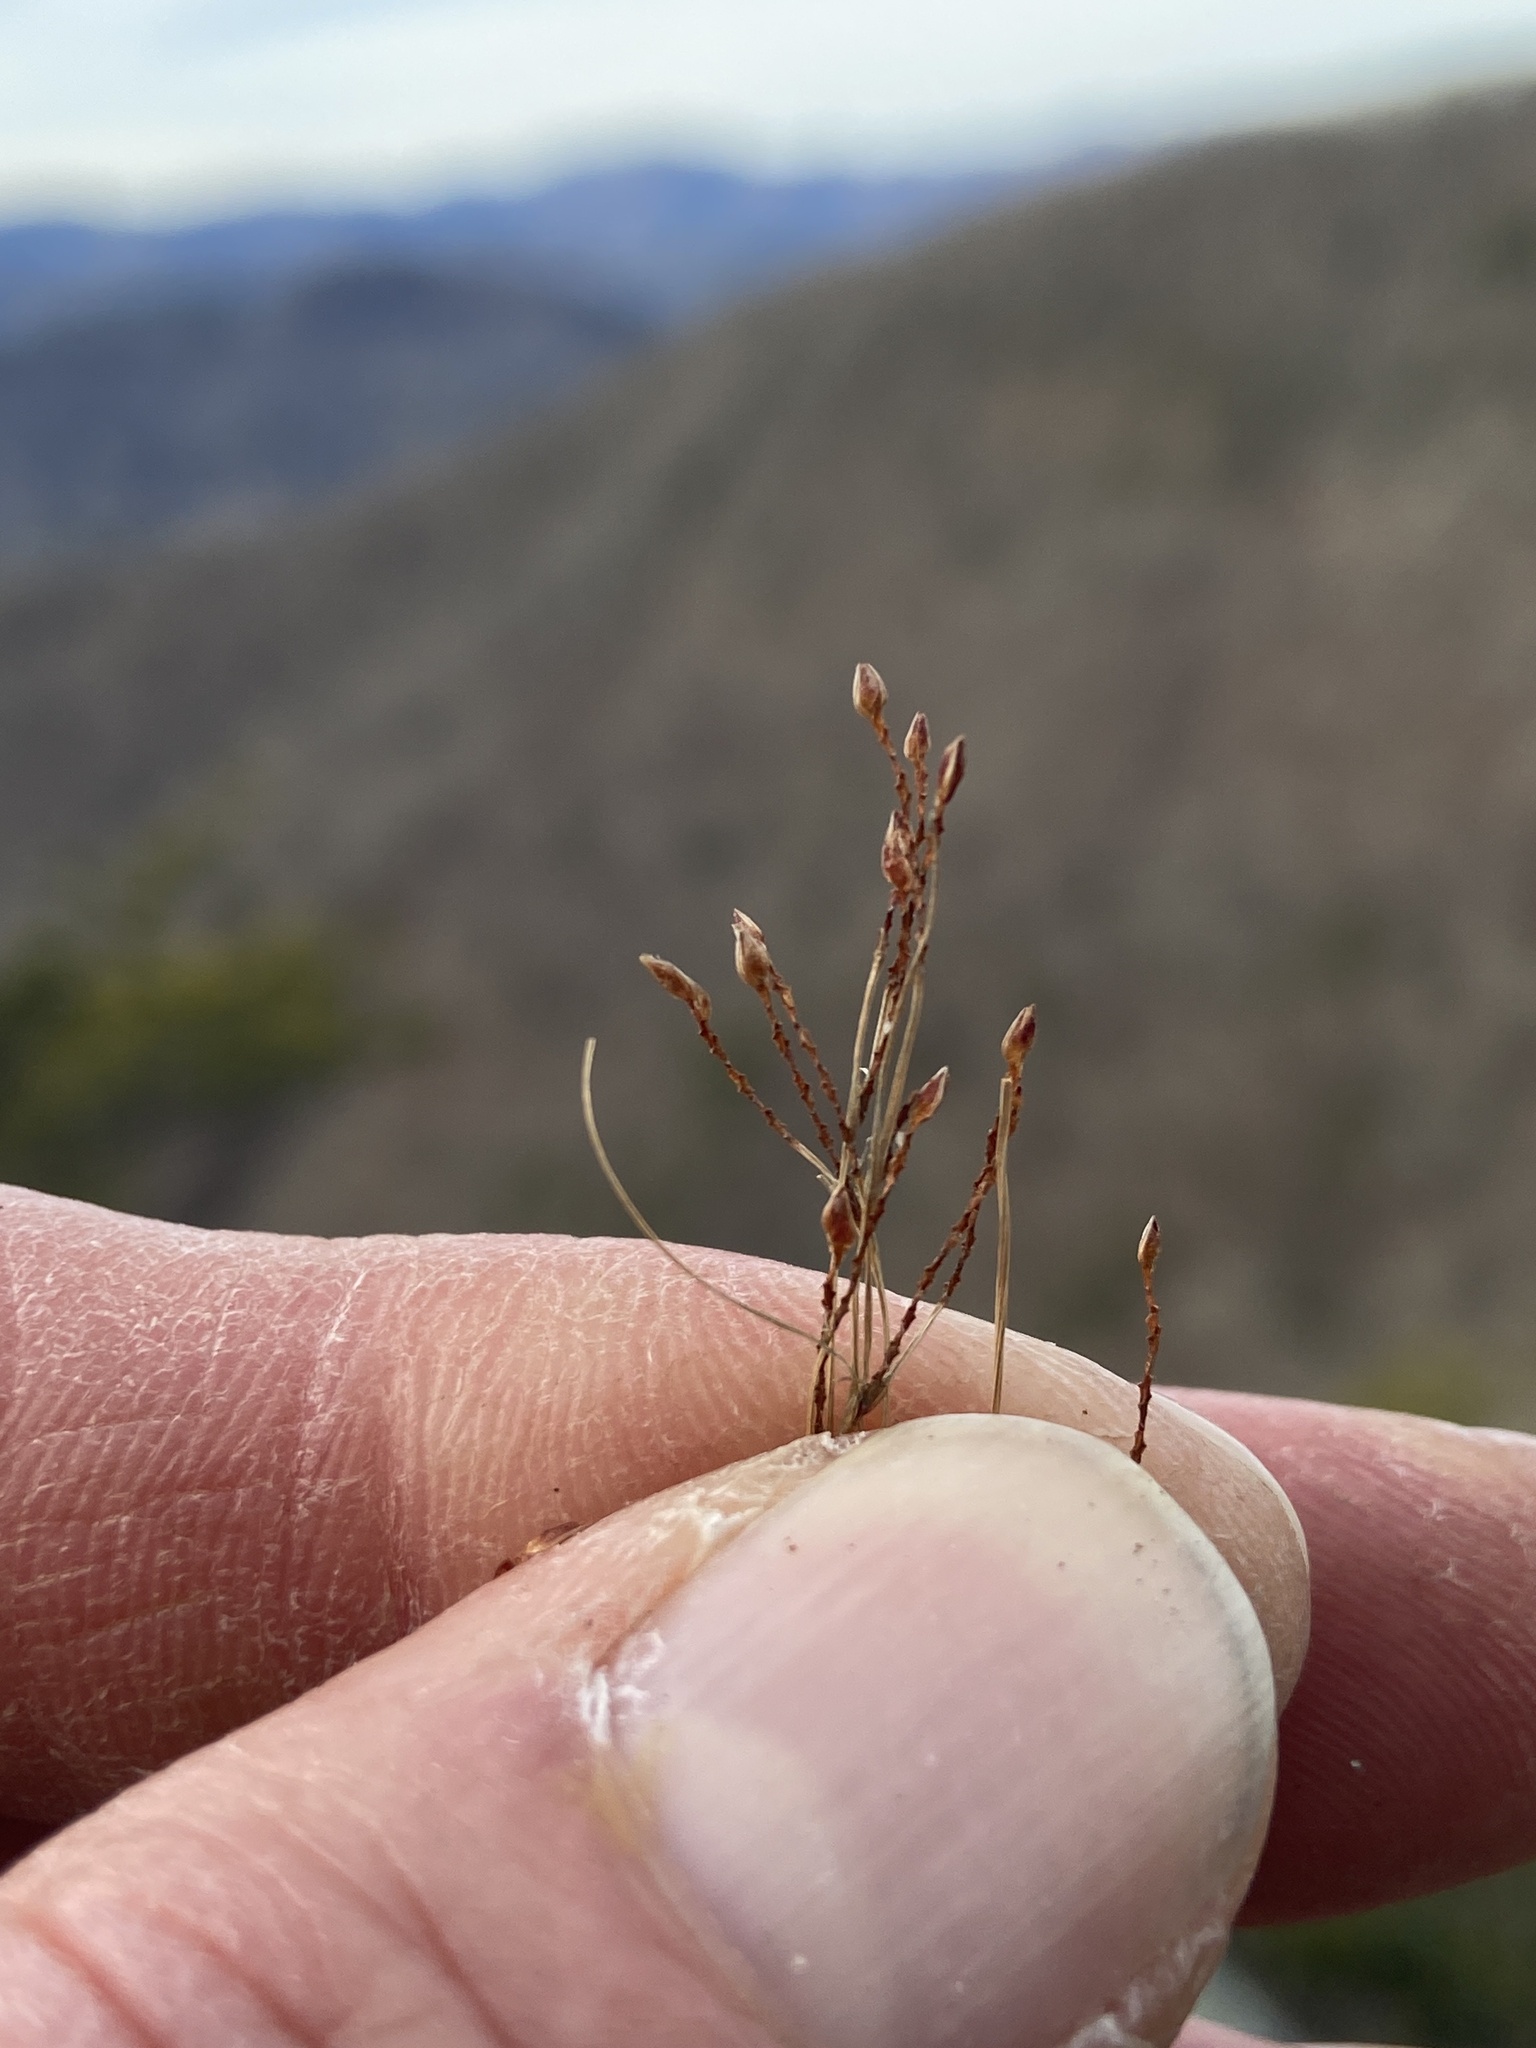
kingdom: Plantae
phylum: Tracheophyta
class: Liliopsida
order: Poales
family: Cyperaceae
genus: Bulbostylis
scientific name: Bulbostylis capillaris
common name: Densetuft hairsedge
